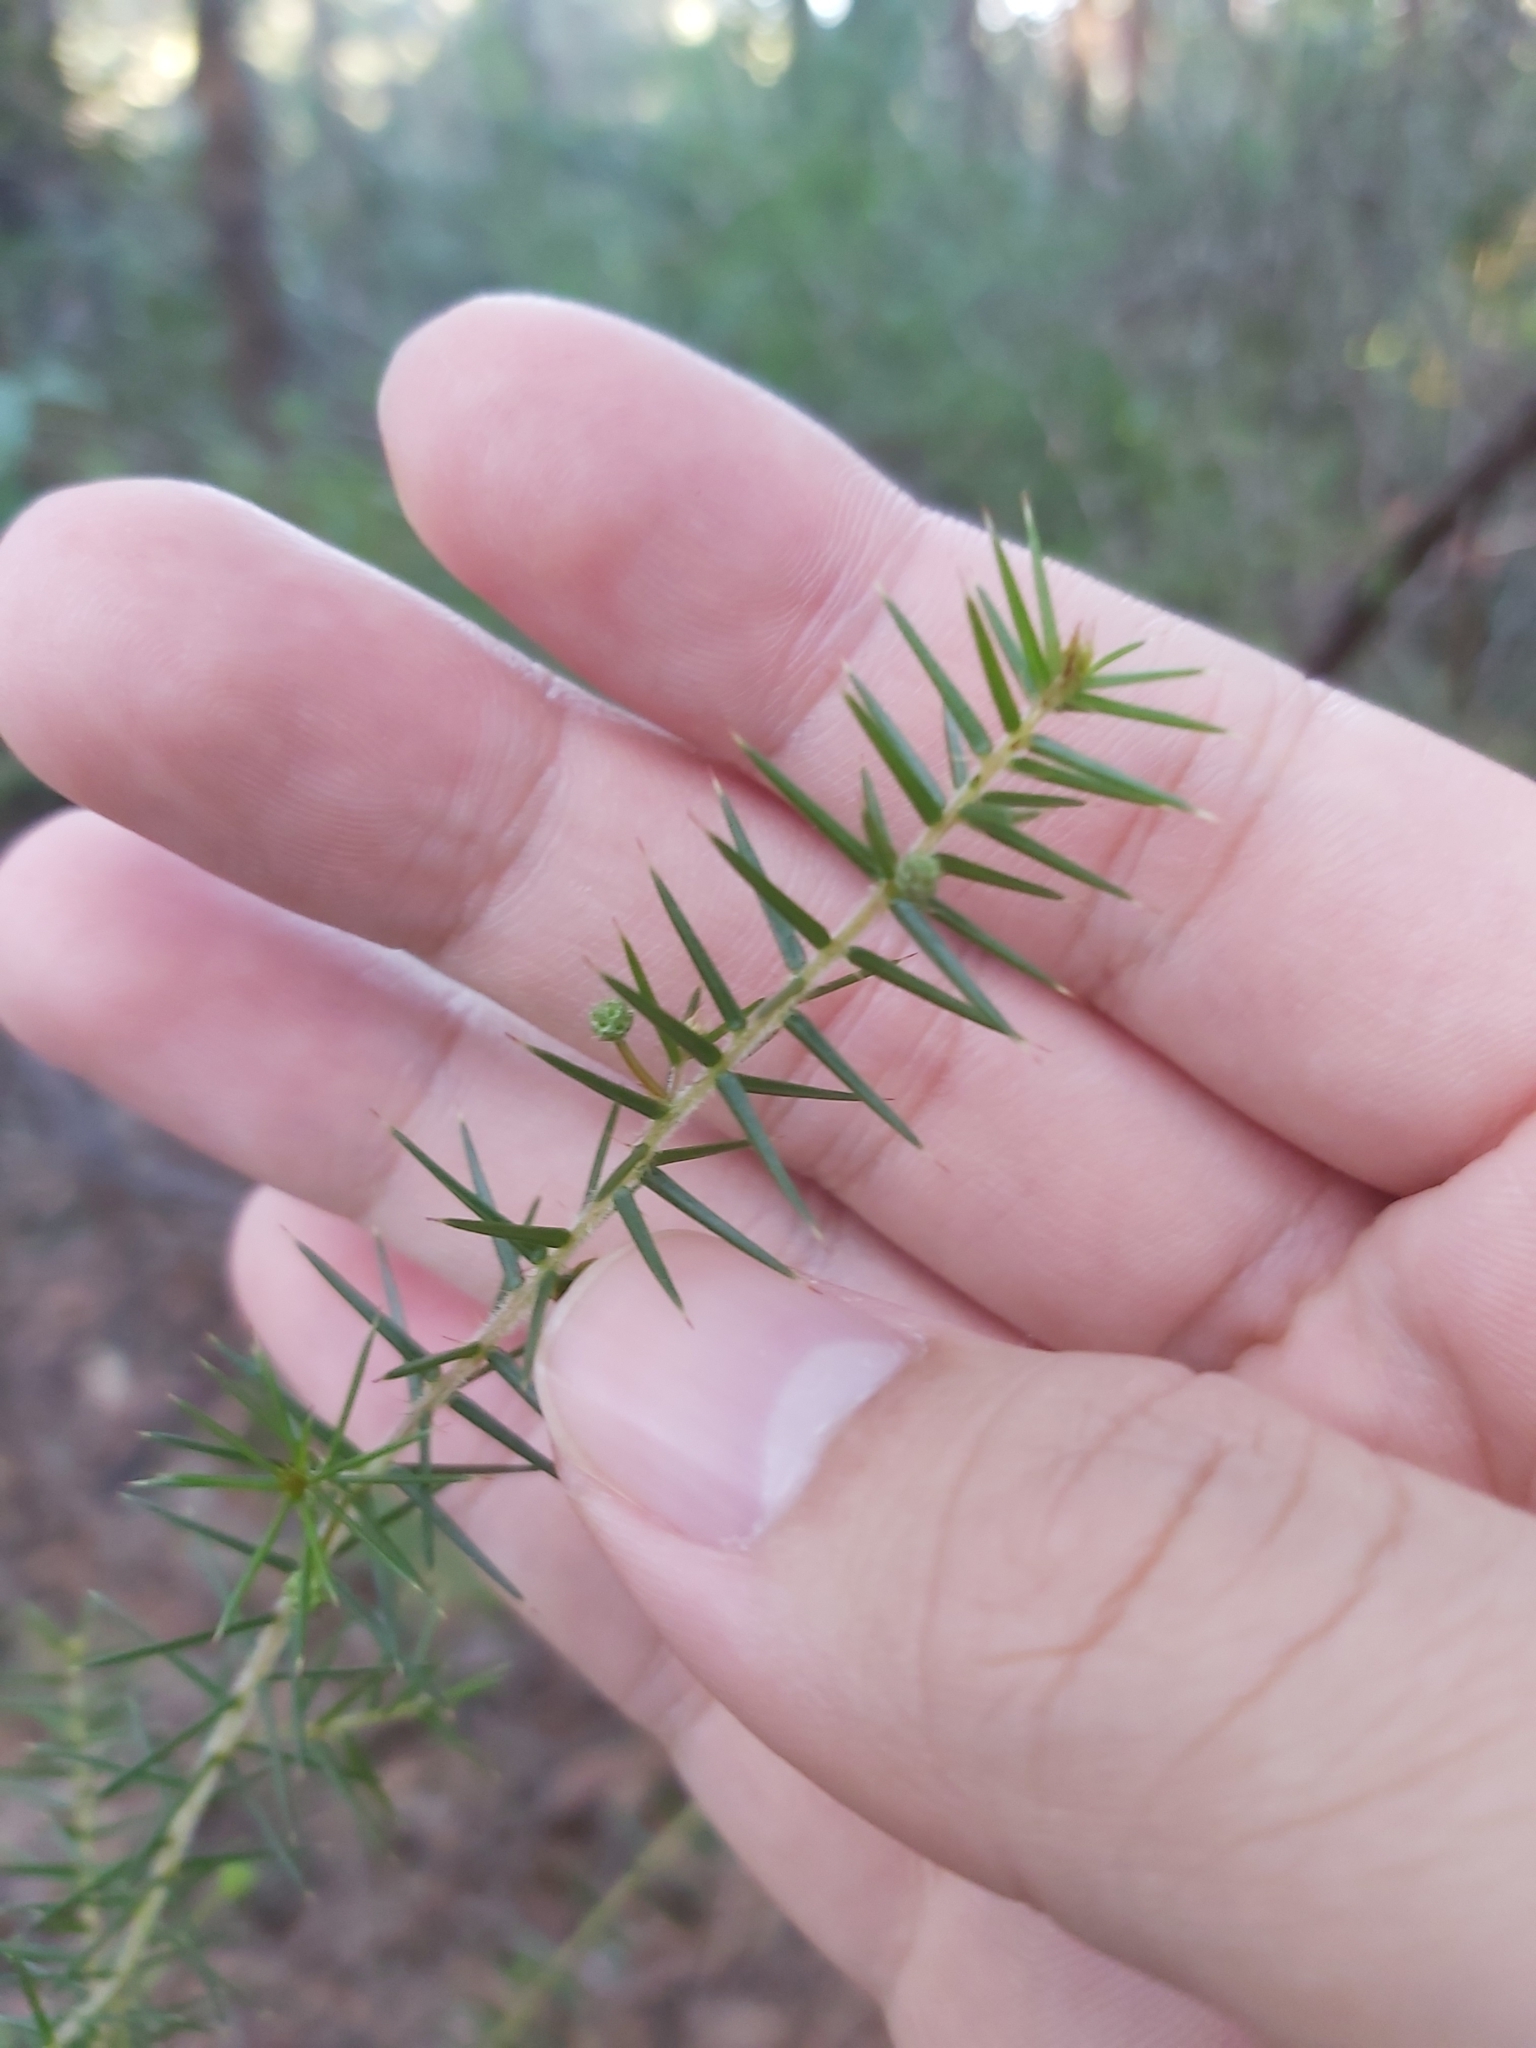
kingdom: Plantae
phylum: Tracheophyta
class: Magnoliopsida
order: Fabales
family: Fabaceae
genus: Acacia
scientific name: Acacia ulicifolia
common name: Juniper wattle
